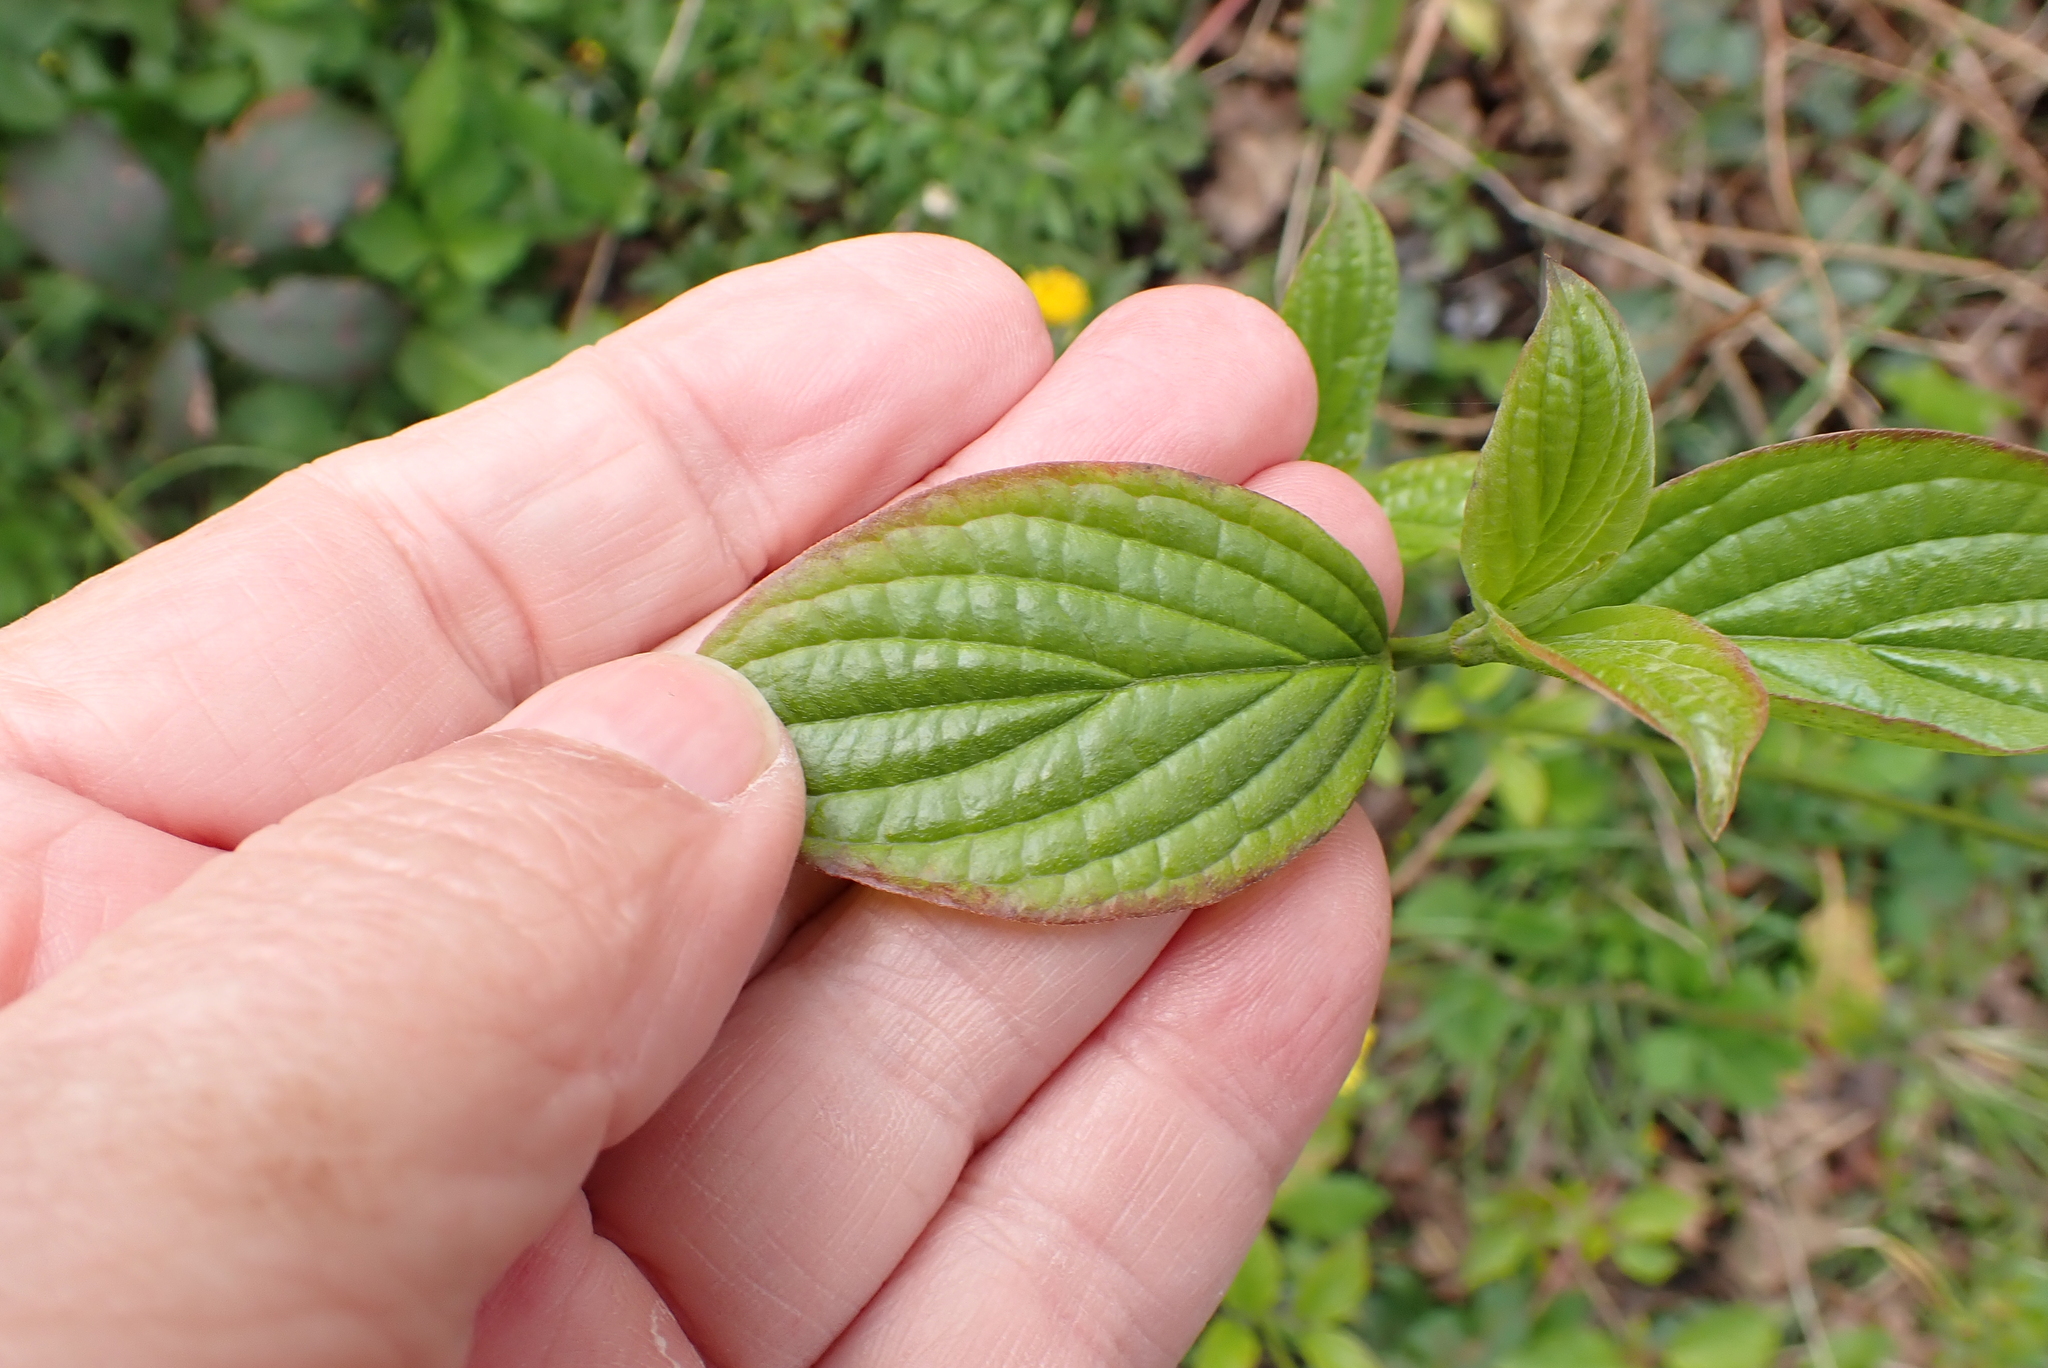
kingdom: Plantae
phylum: Tracheophyta
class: Magnoliopsida
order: Cornales
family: Cornaceae
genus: Cornus
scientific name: Cornus sanguinea
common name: Dogwood
